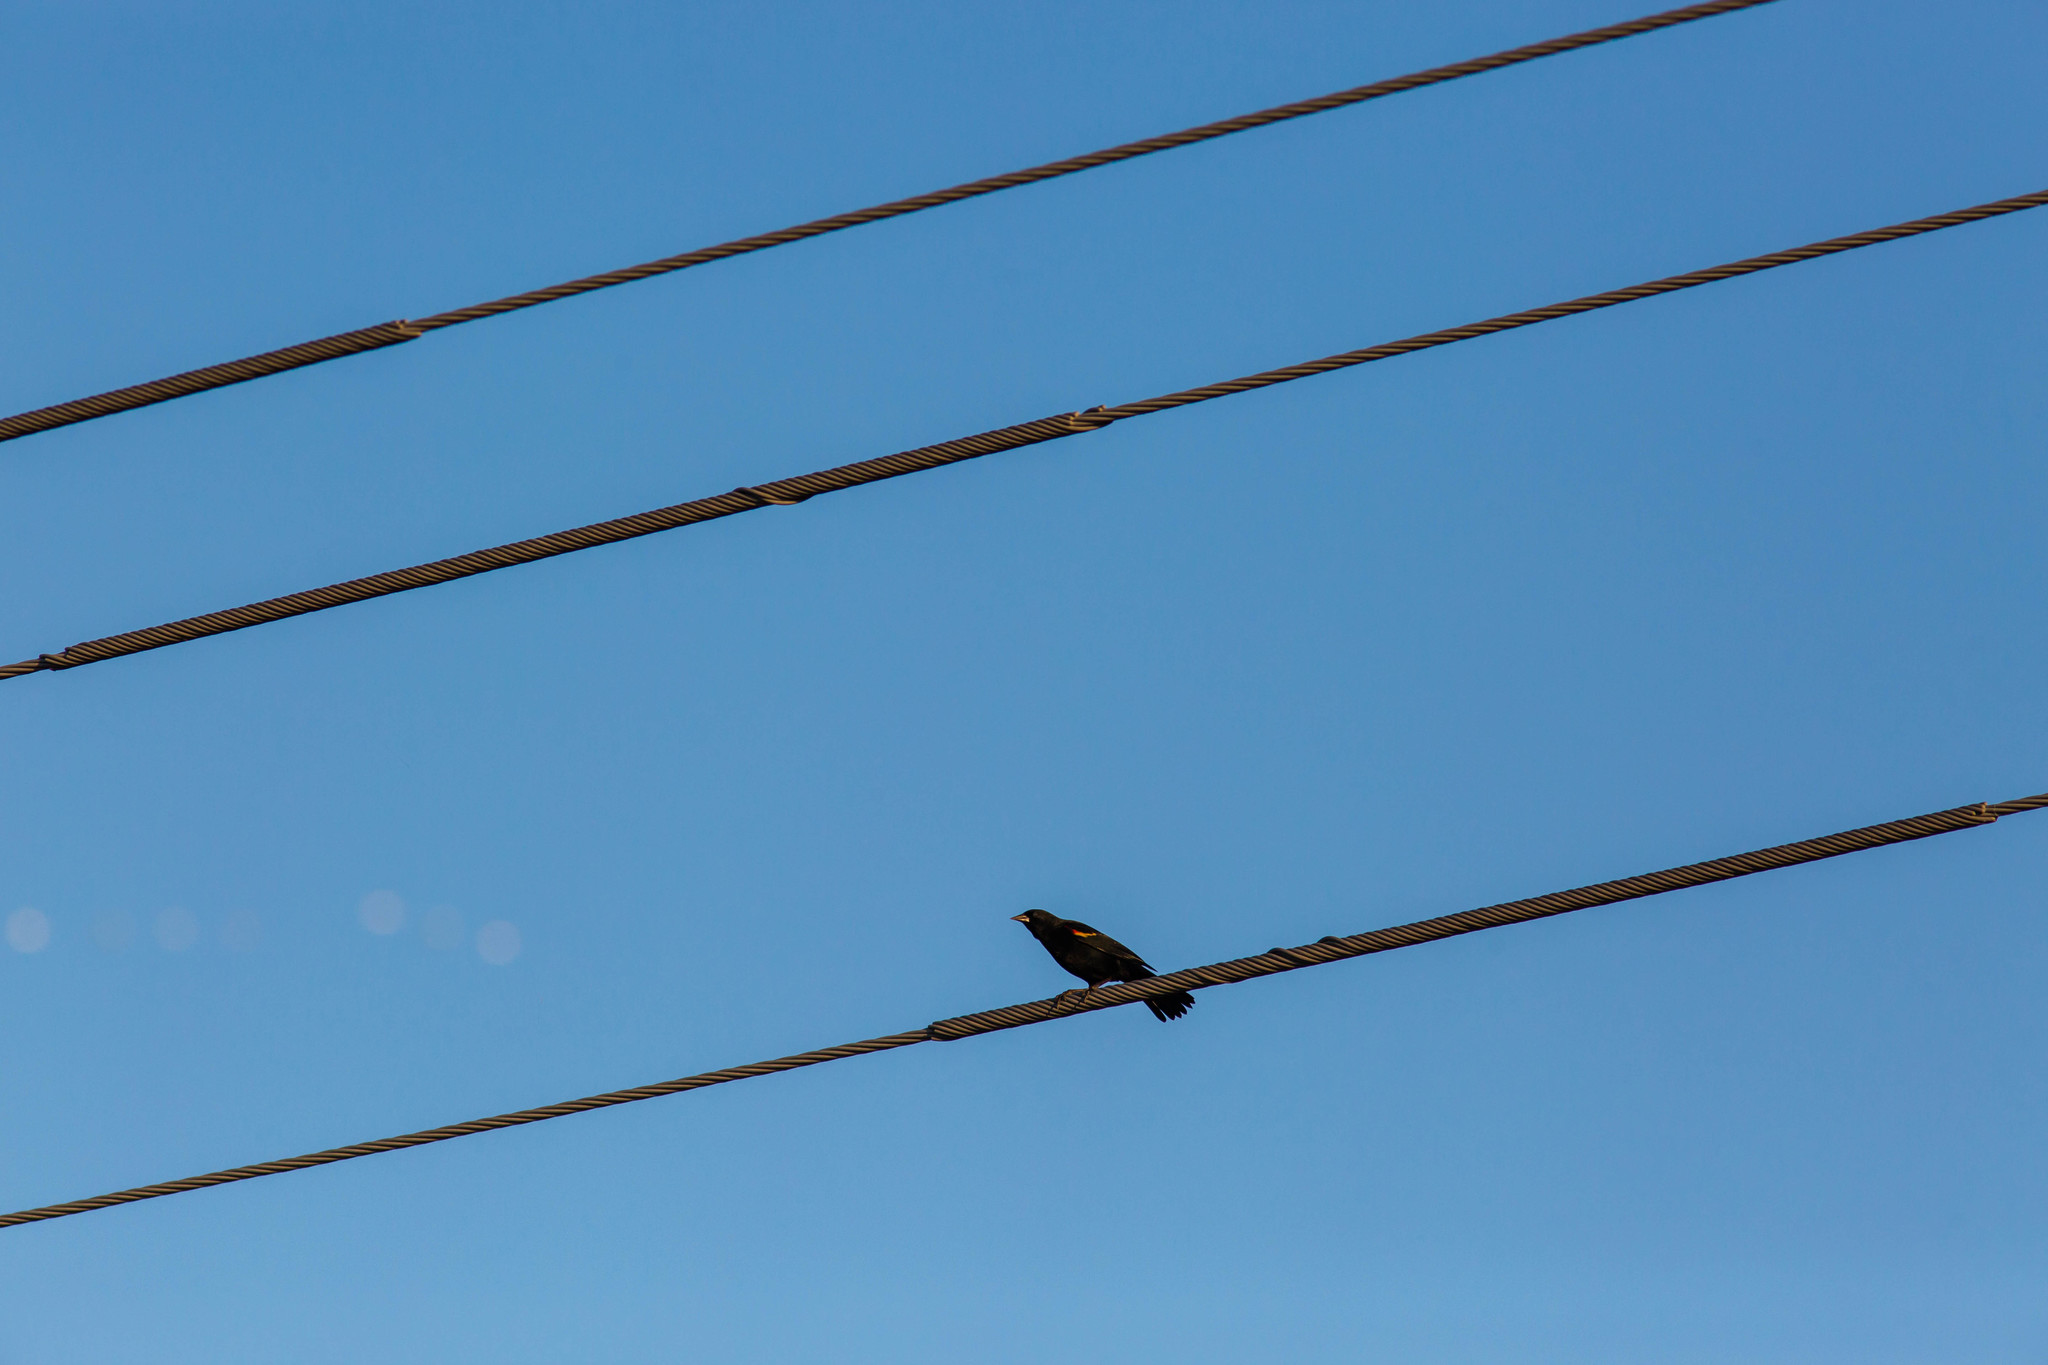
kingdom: Animalia
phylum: Chordata
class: Aves
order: Passeriformes
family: Icteridae
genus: Agelaius
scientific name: Agelaius phoeniceus
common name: Red-winged blackbird
